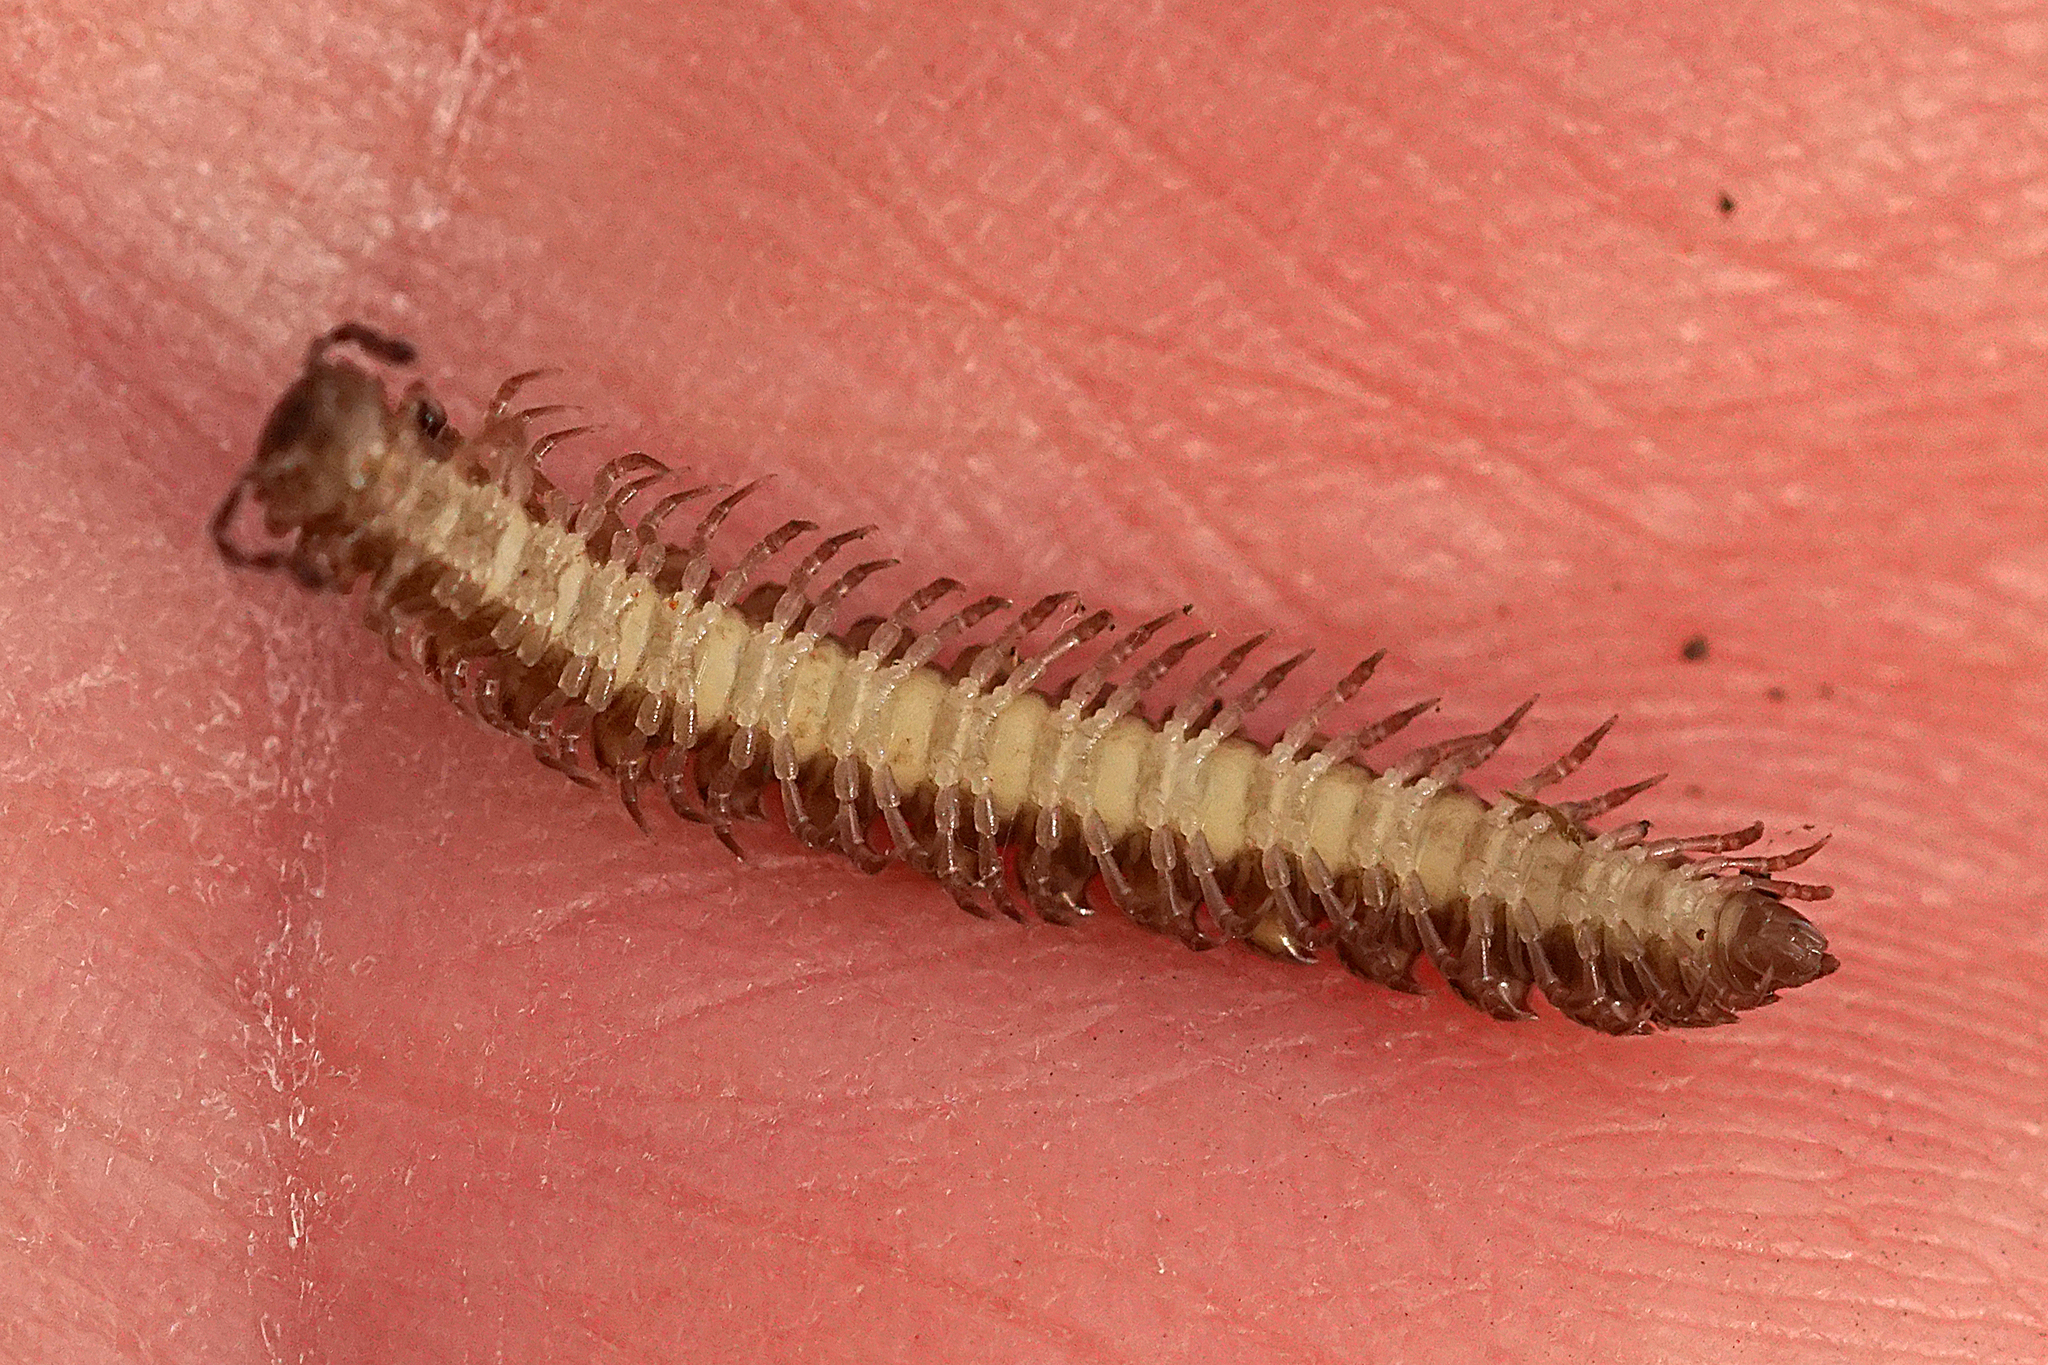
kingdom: Animalia
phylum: Arthropoda
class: Diplopoda
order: Polydesmida
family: Polydesmidae
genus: Polydesmus
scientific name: Polydesmus
